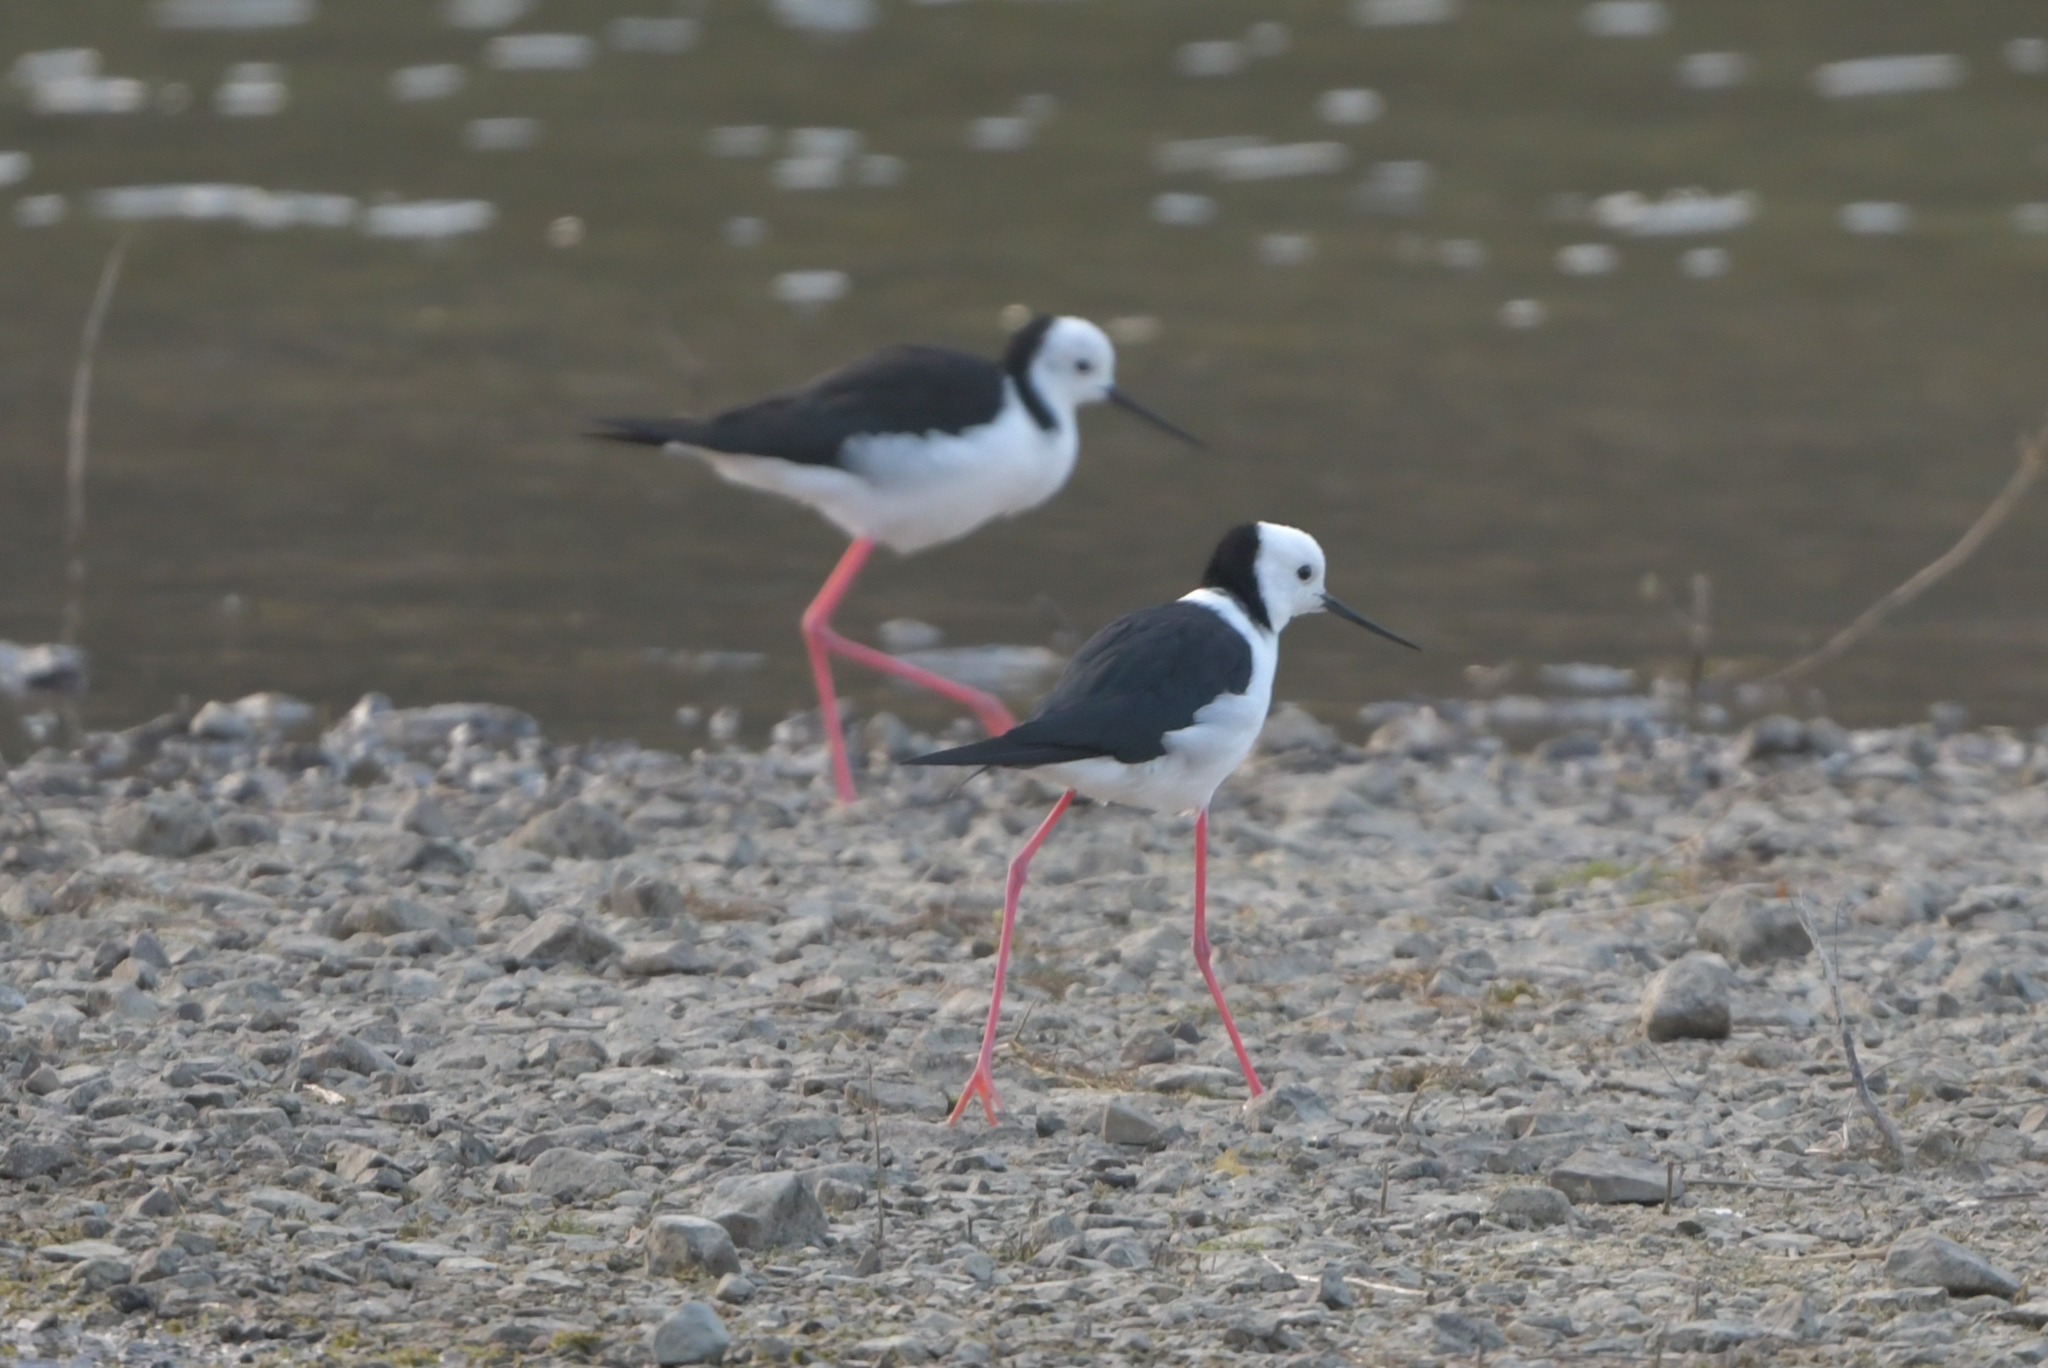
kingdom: Animalia
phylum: Chordata
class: Aves
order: Charadriiformes
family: Recurvirostridae
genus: Himantopus
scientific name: Himantopus leucocephalus
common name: White-headed stilt
